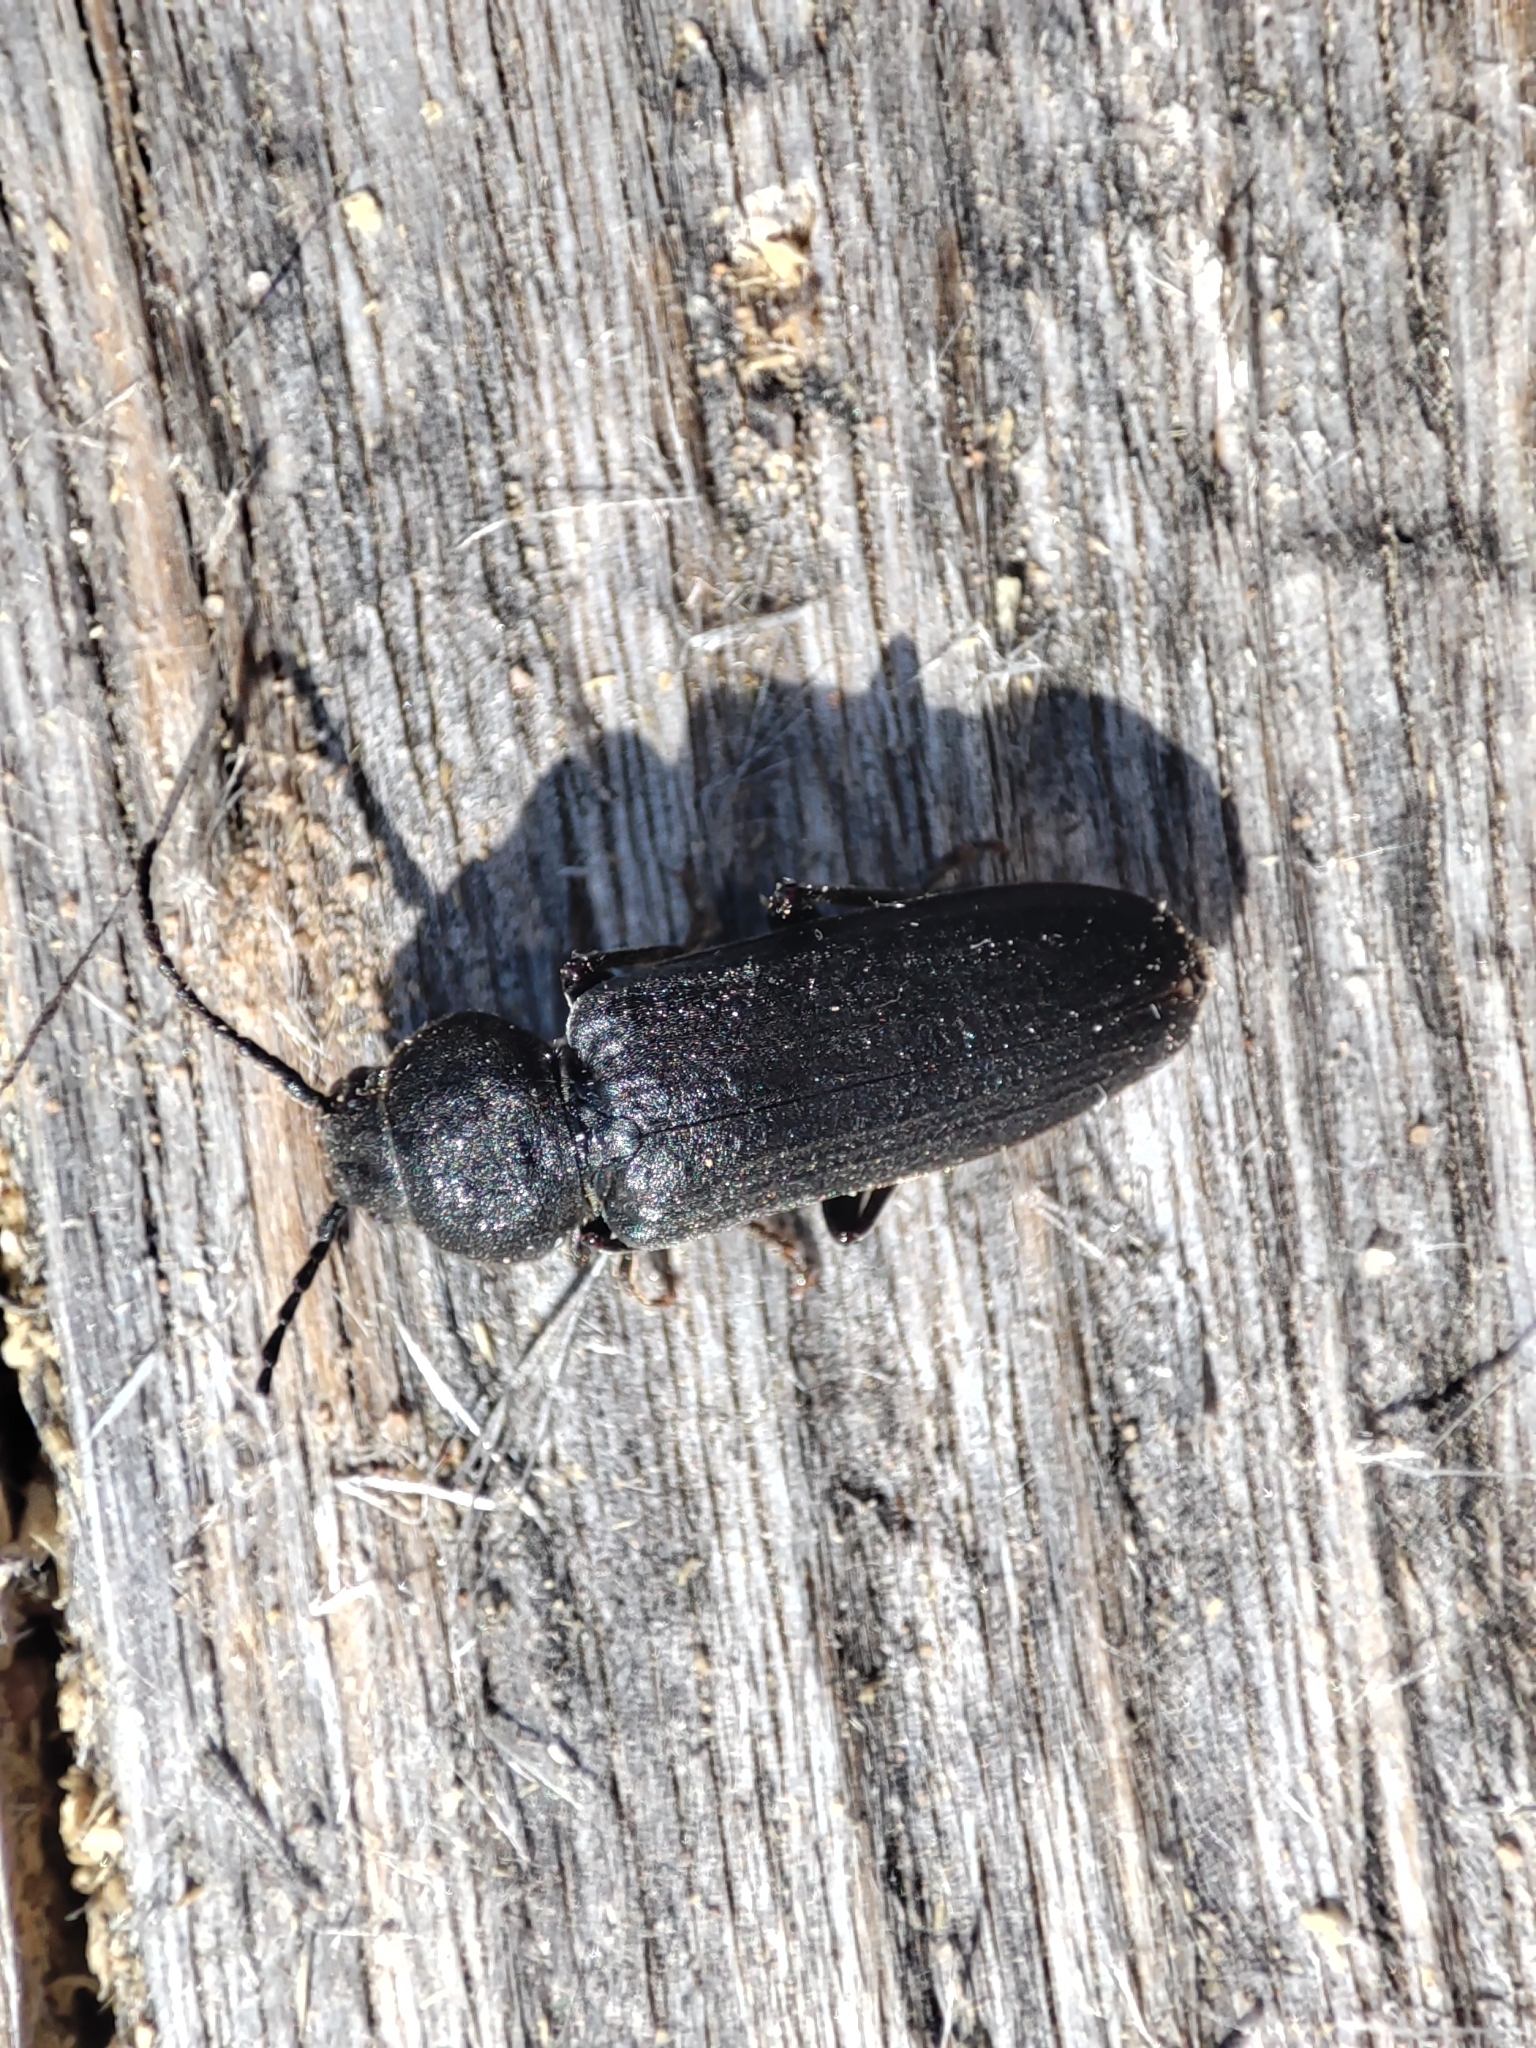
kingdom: Animalia
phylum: Arthropoda
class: Insecta
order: Coleoptera
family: Cerambycidae
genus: Asemum
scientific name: Asemum striatum
